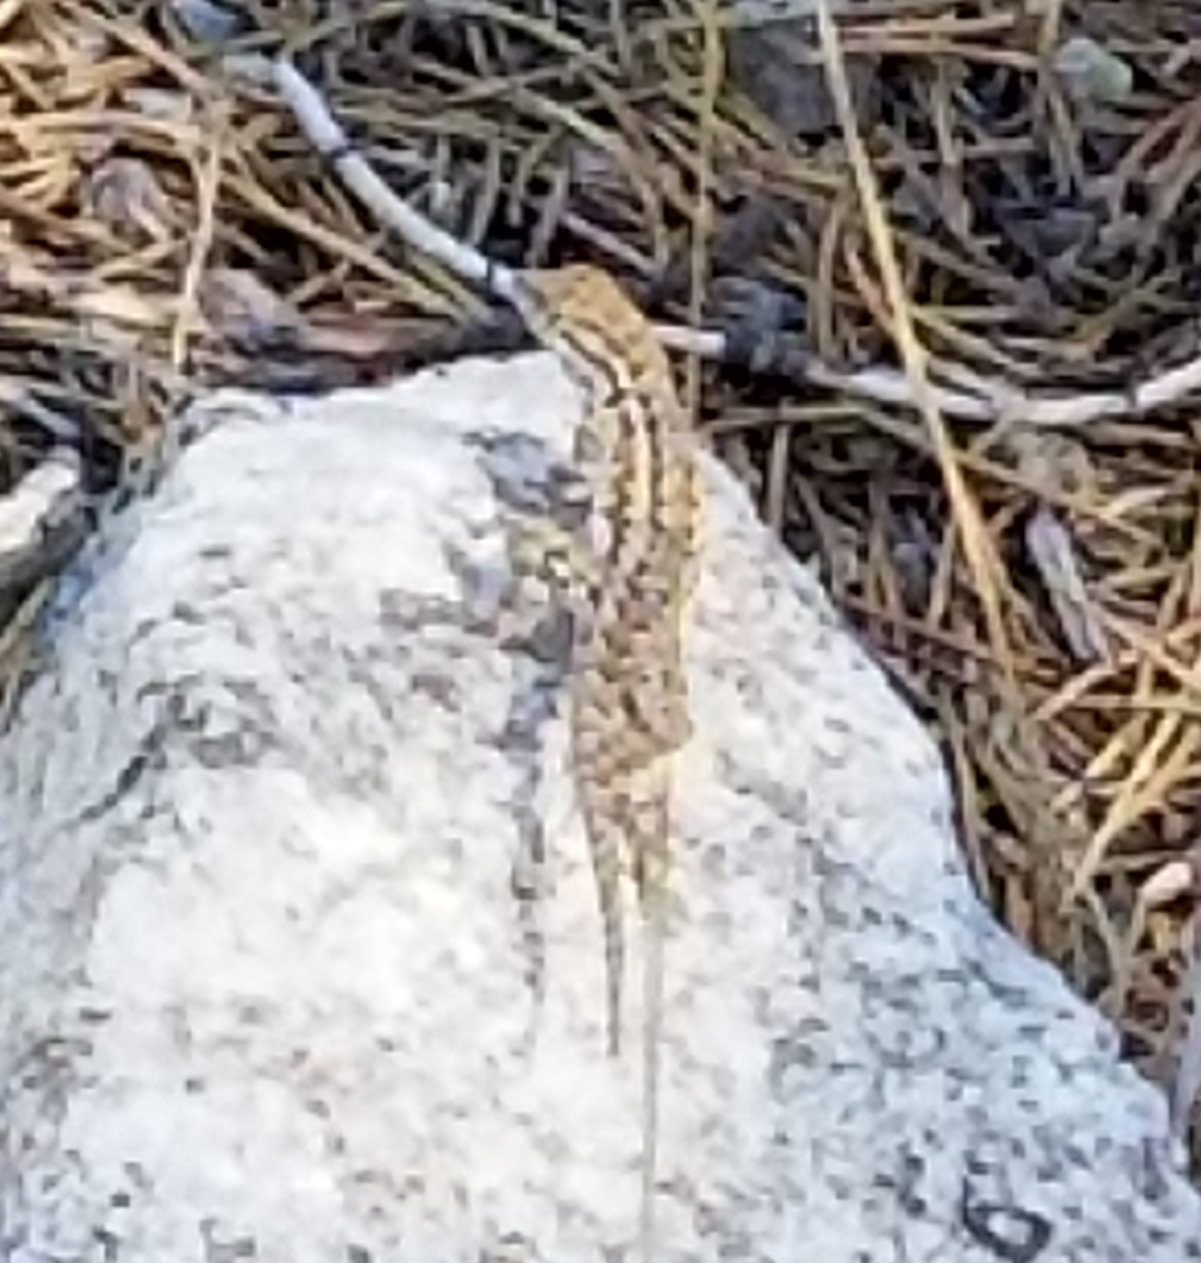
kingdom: Animalia
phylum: Chordata
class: Squamata
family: Phrynosomatidae
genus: Uta
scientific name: Uta stansburiana
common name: Side-blotched lizard
